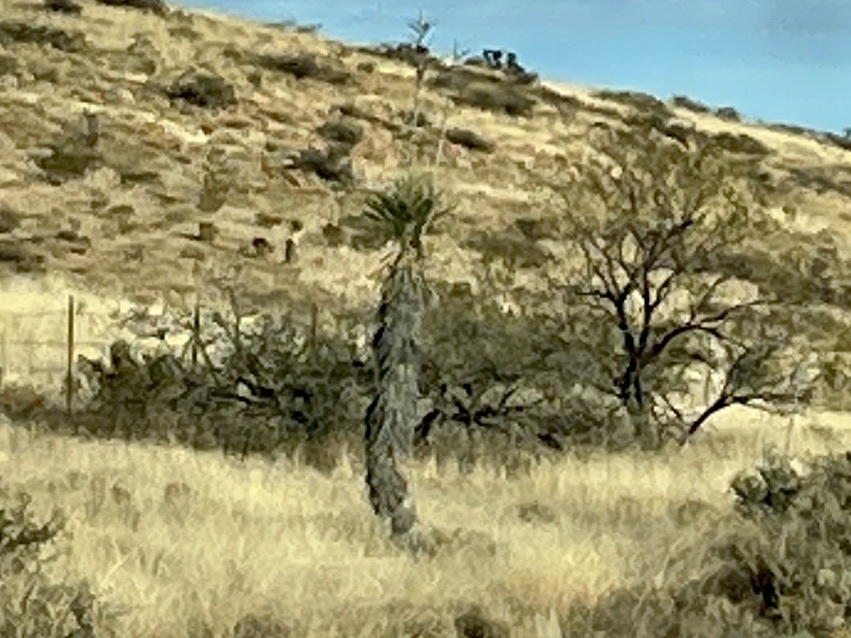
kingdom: Plantae
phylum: Tracheophyta
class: Liliopsida
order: Asparagales
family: Asparagaceae
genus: Yucca
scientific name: Yucca elata
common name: Palmella
